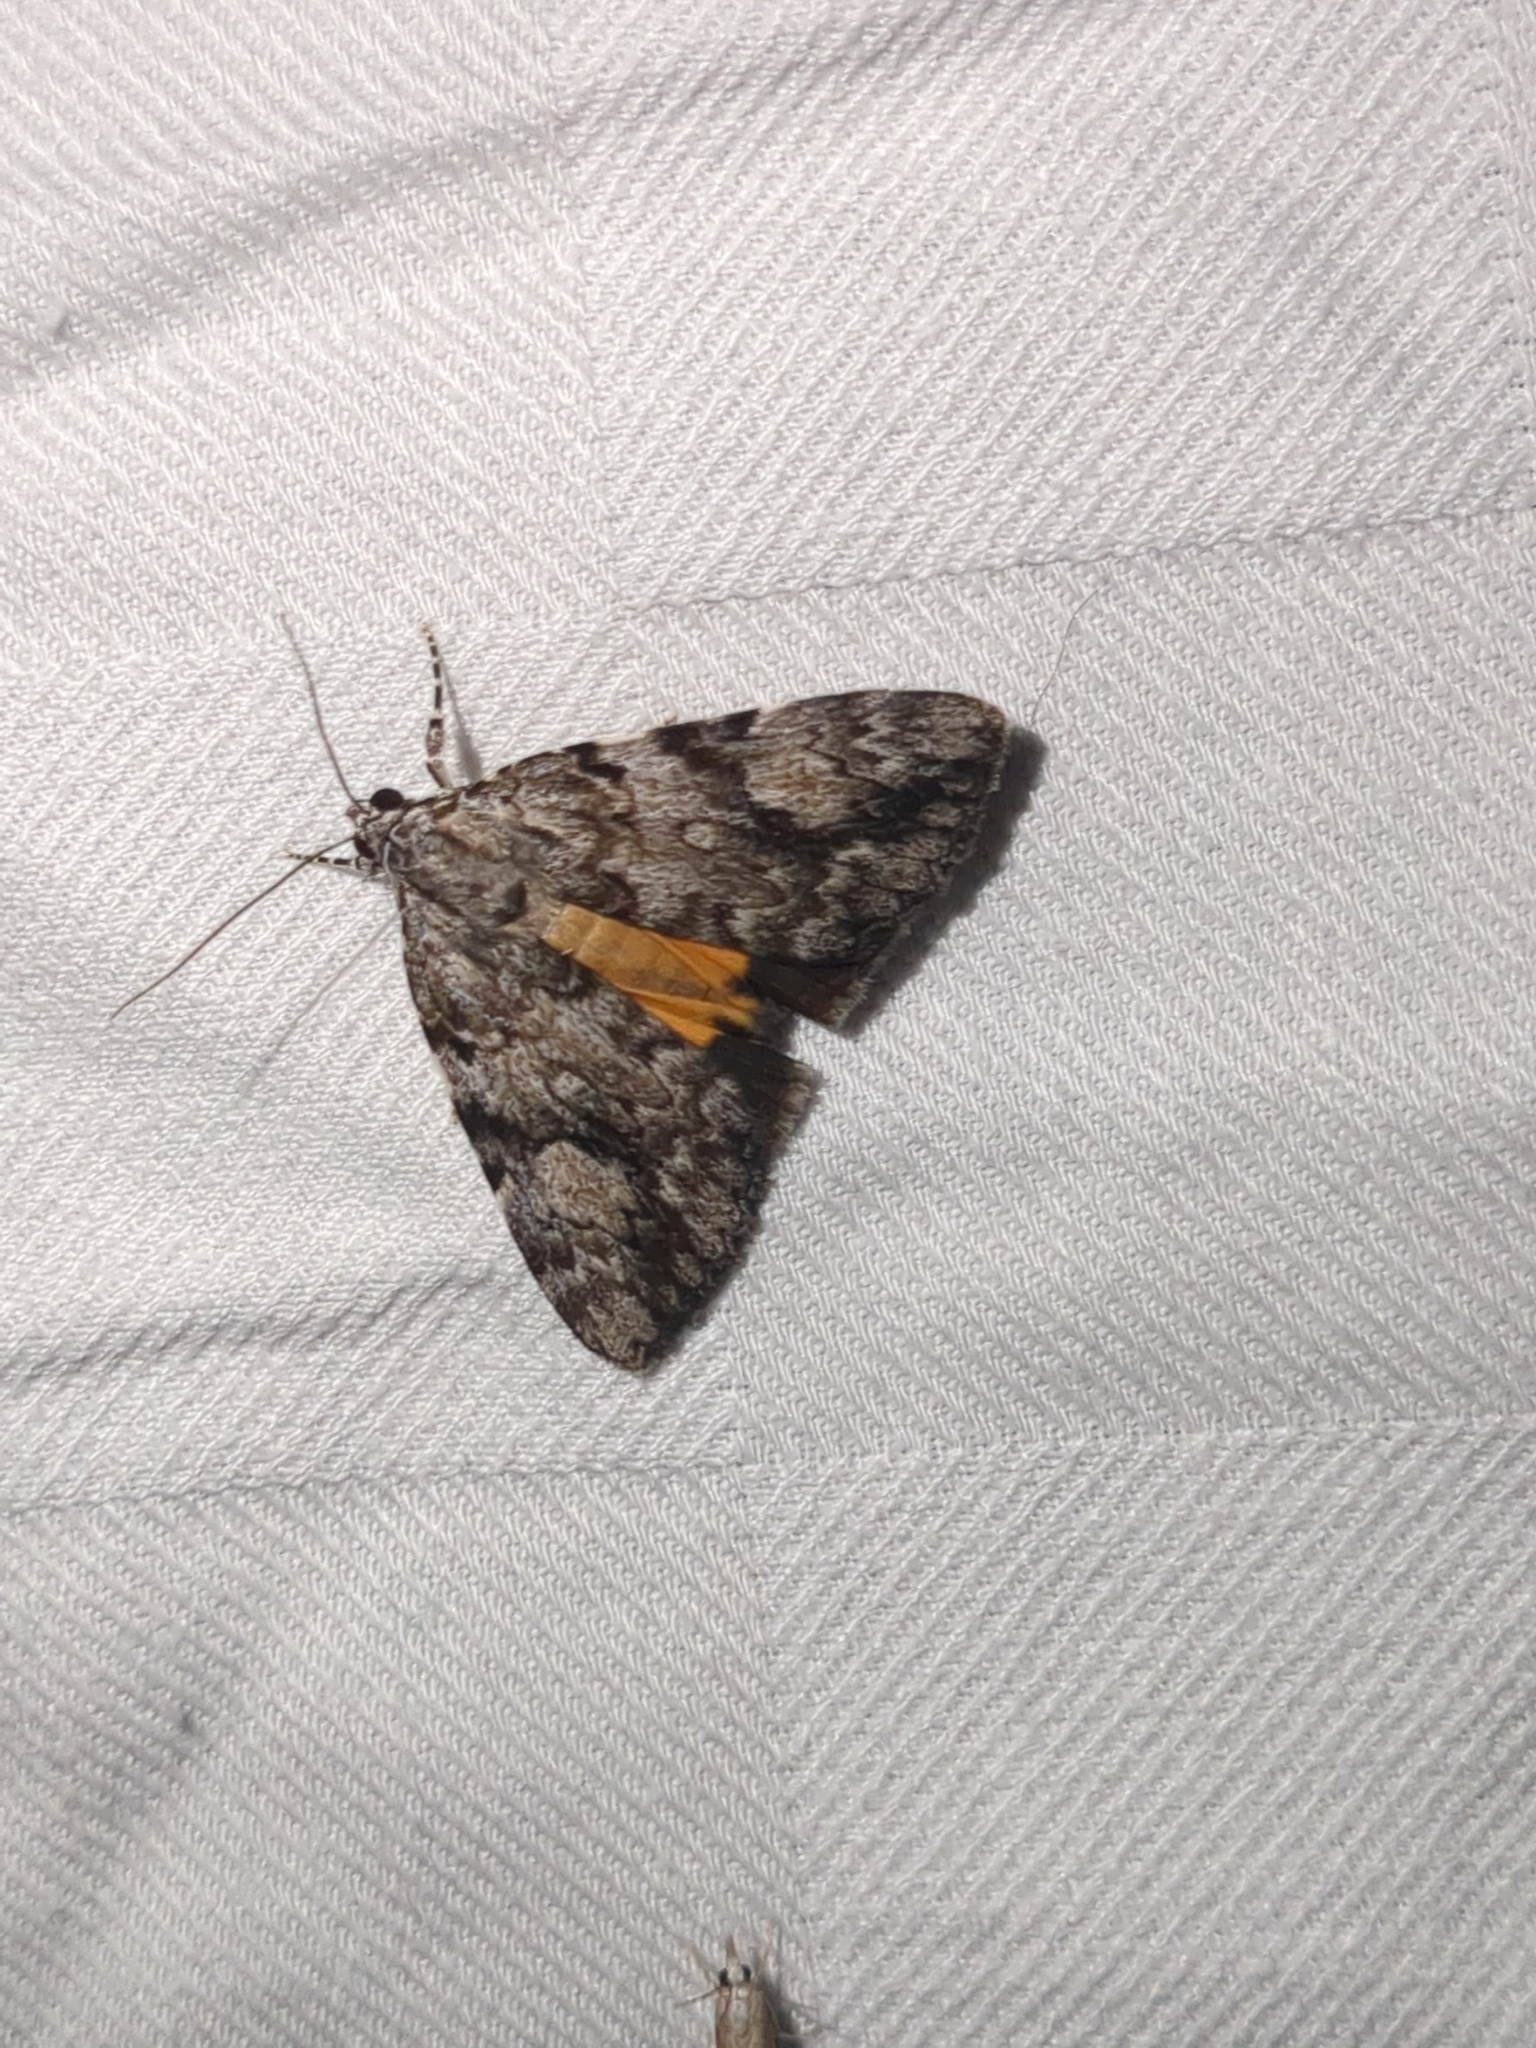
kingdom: Animalia
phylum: Arthropoda
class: Insecta
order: Lepidoptera
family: Erebidae
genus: Catocala
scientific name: Catocala amica
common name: Girlfriend underwing
